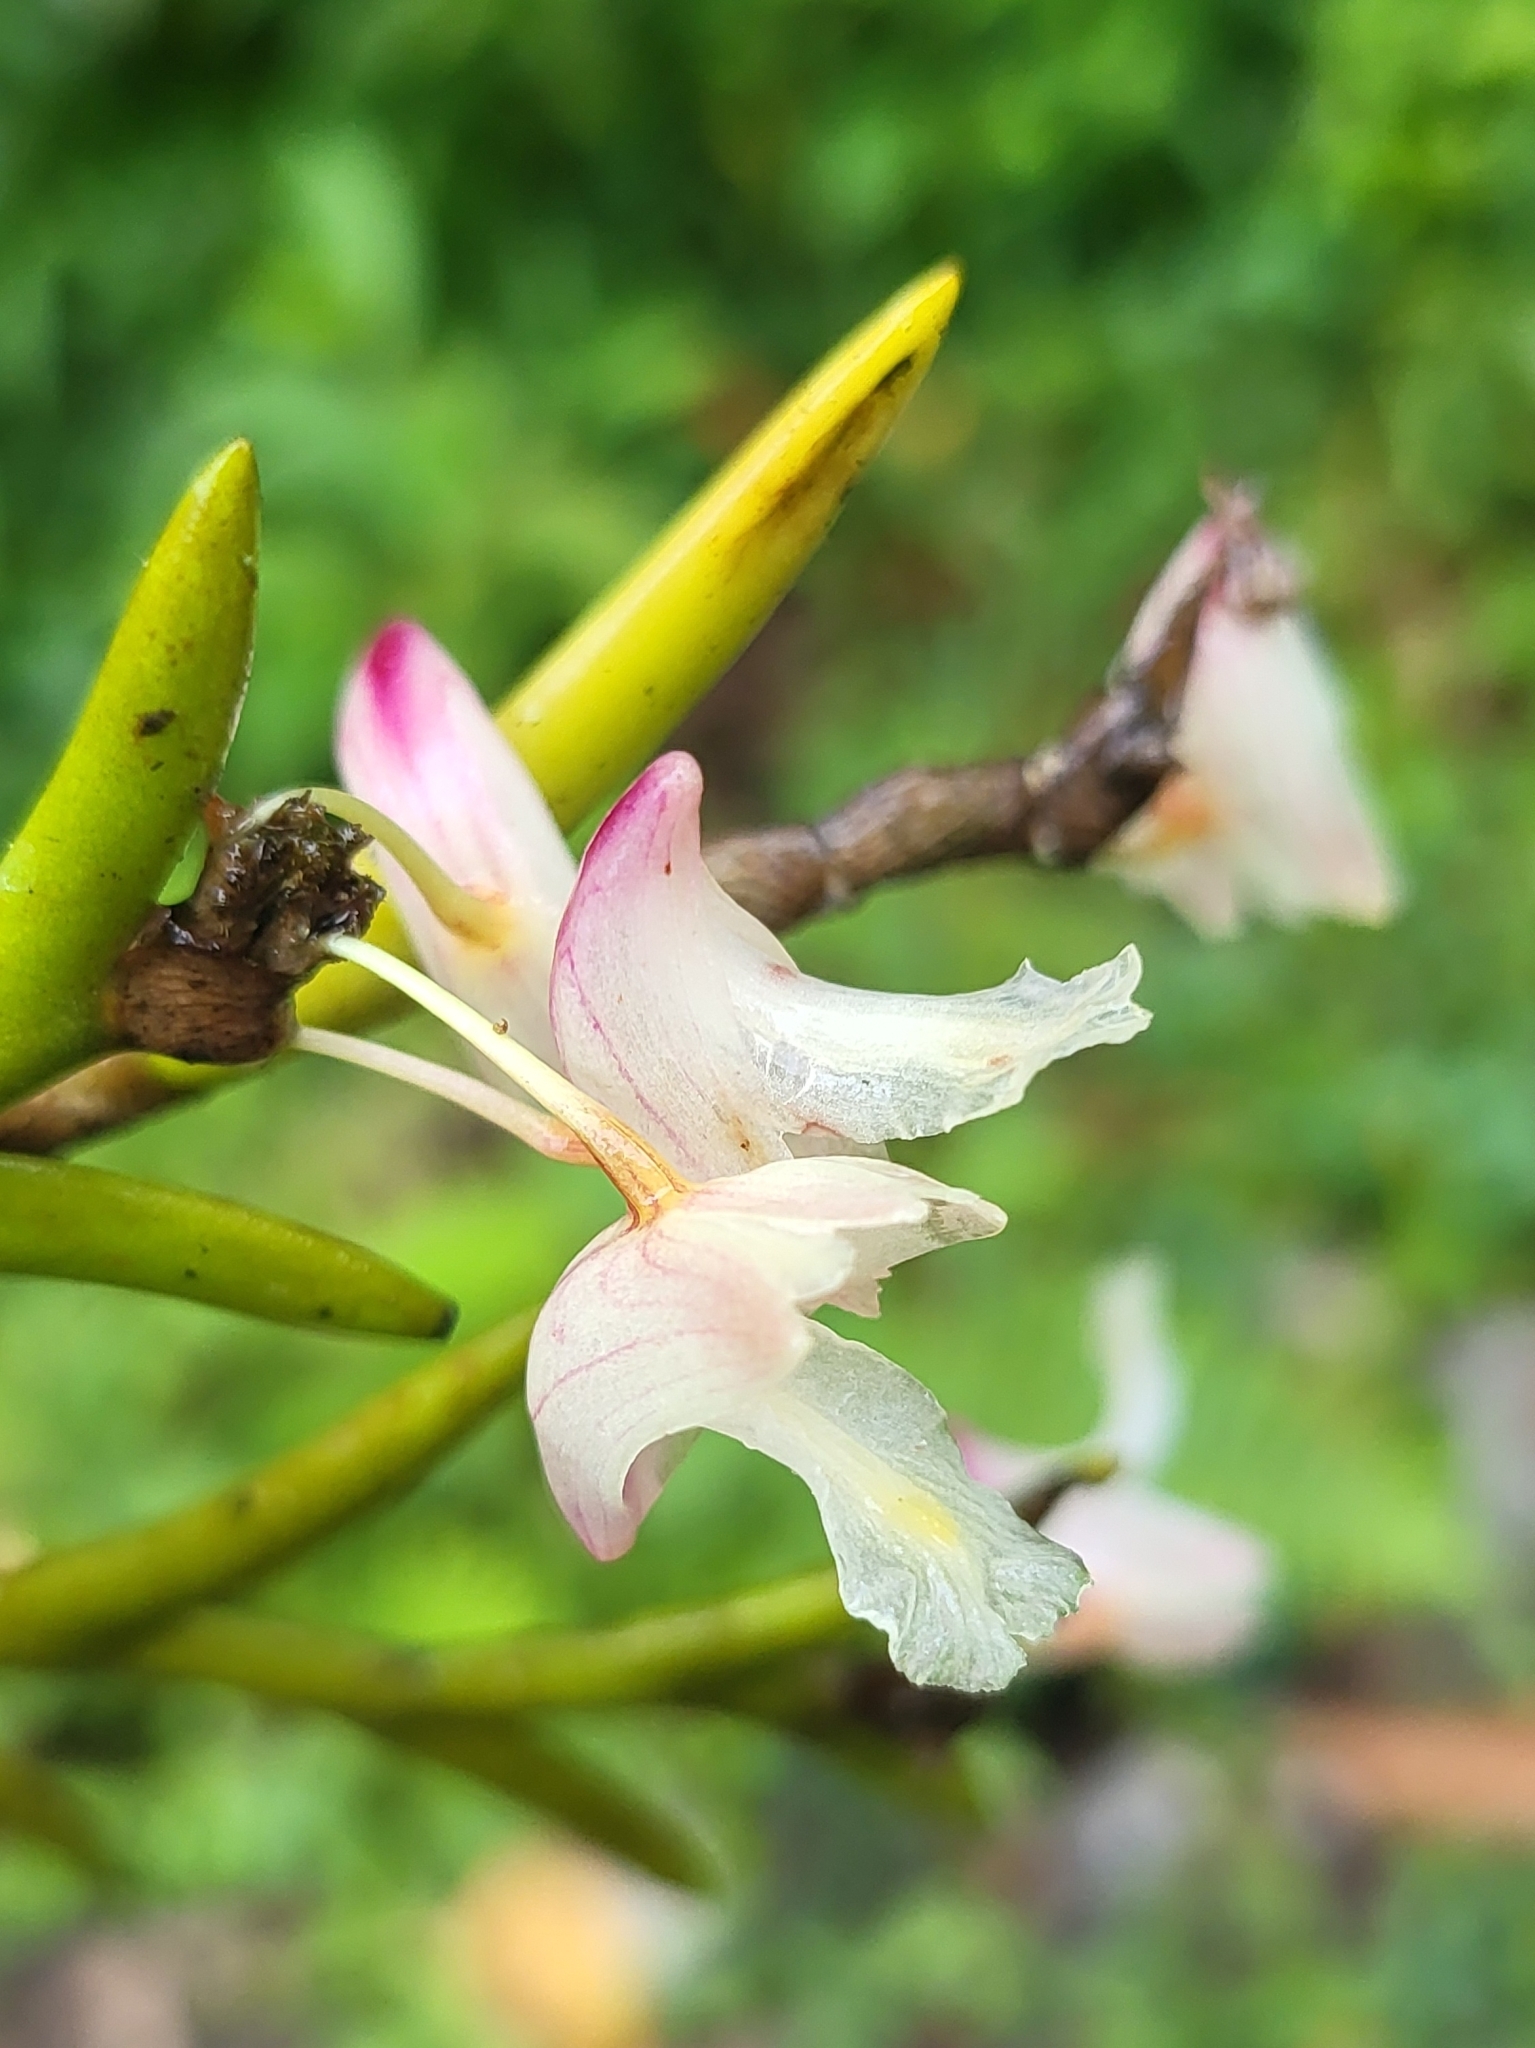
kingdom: Plantae
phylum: Tracheophyta
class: Liliopsida
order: Asparagales
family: Orchidaceae
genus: Dendrobium
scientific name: Dendrobium acerosum
